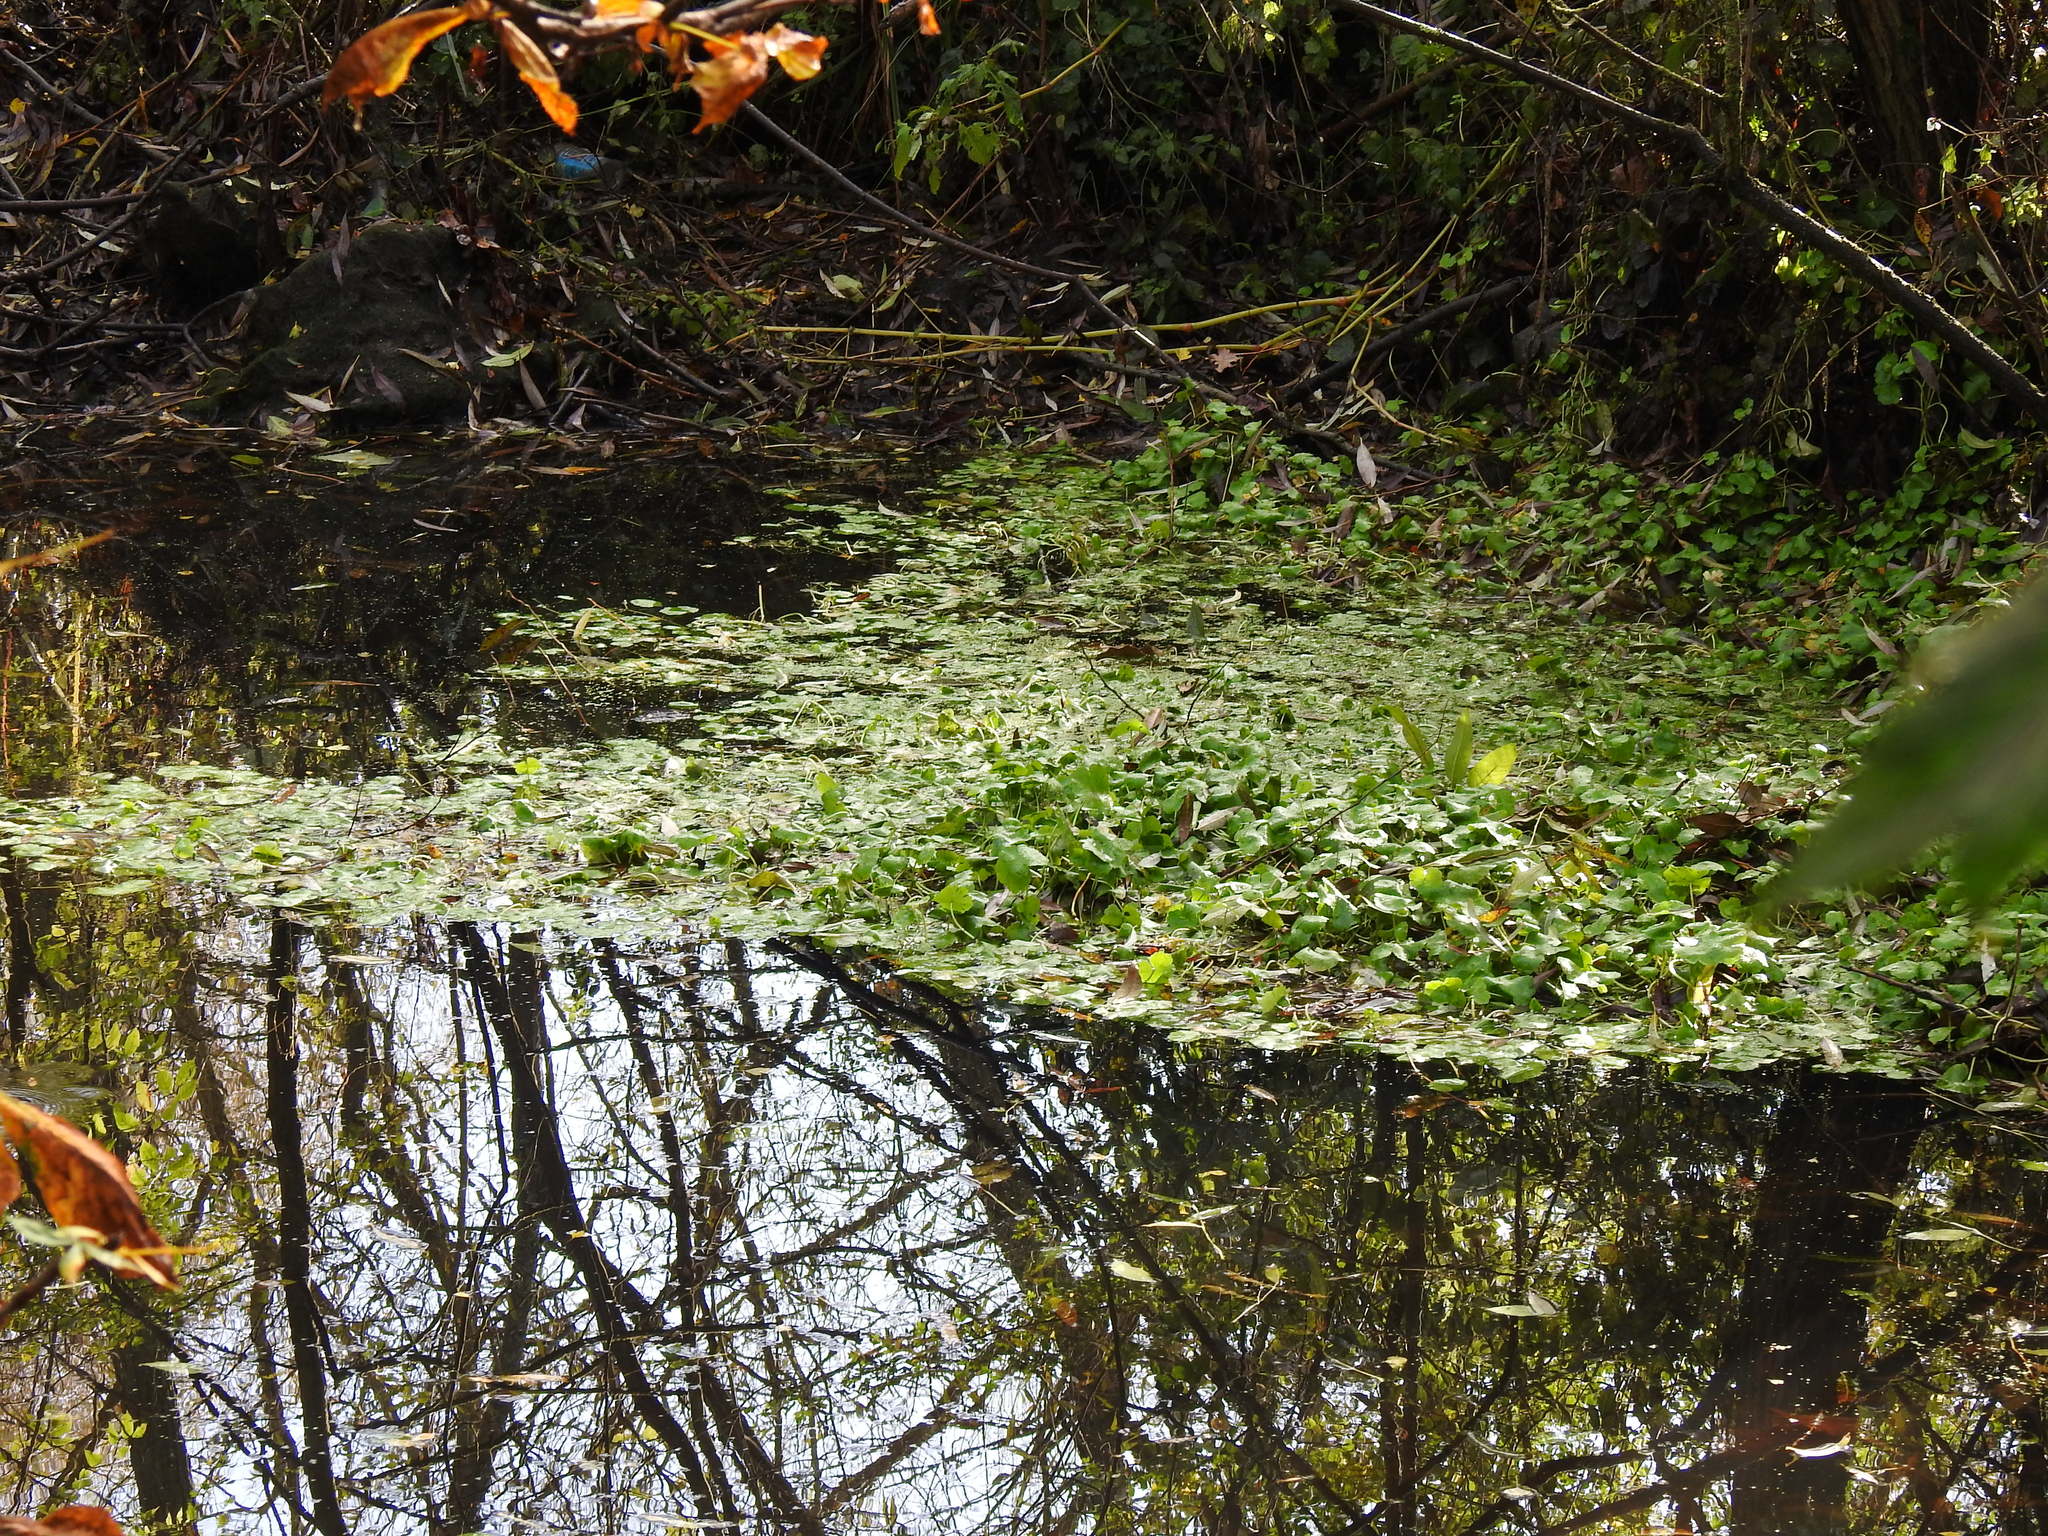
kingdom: Plantae
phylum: Tracheophyta
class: Magnoliopsida
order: Apiales
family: Araliaceae
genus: Hydrocotyle
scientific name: Hydrocotyle ranunculoides
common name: Floating pennywort
